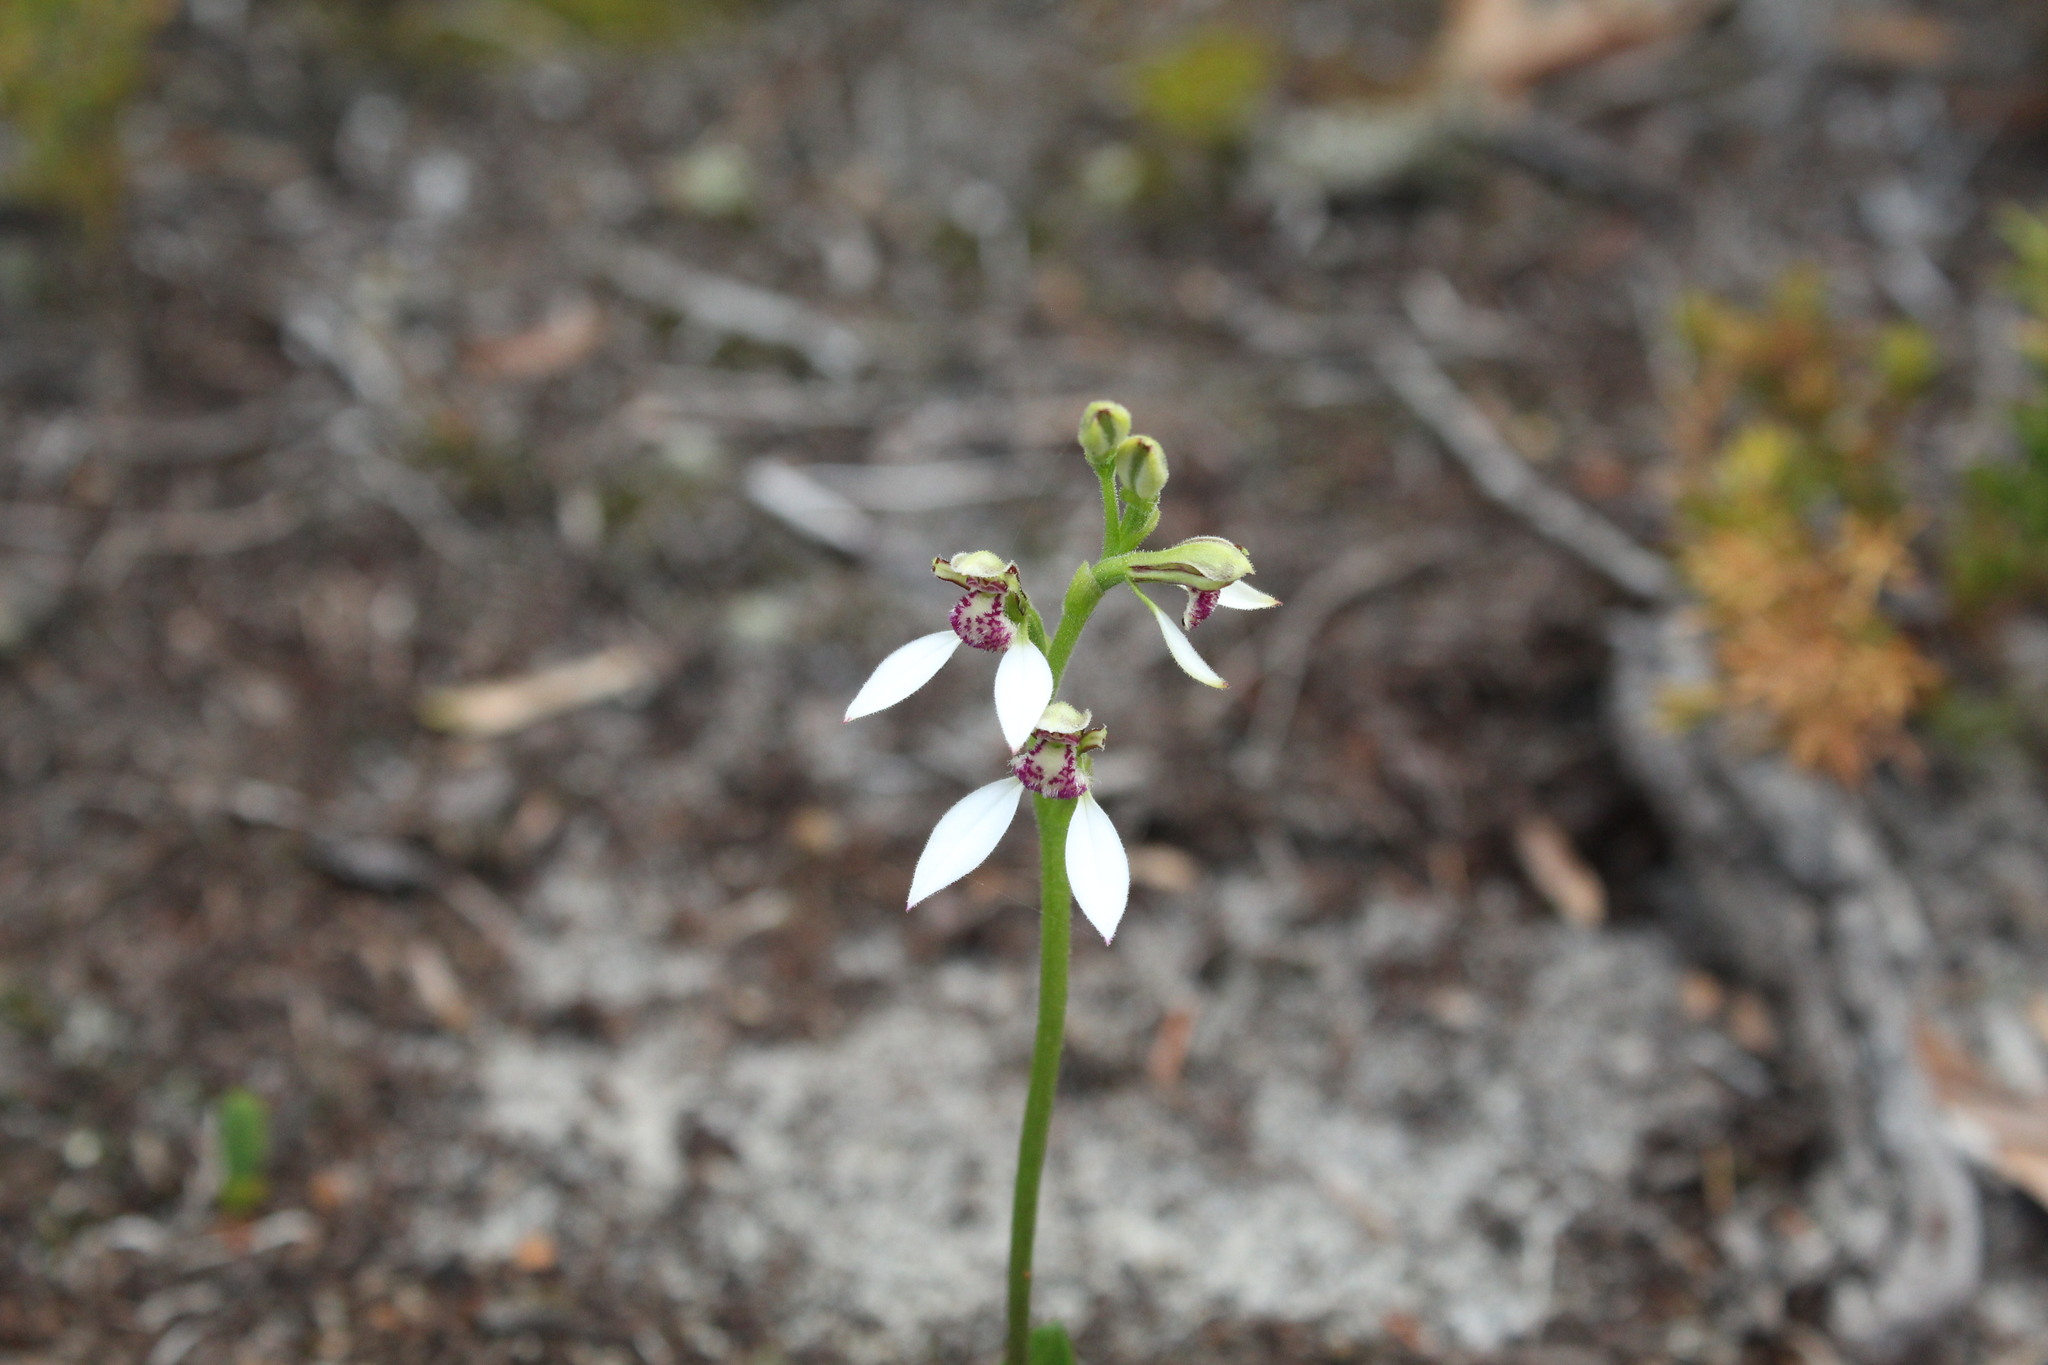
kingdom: Plantae
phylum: Tracheophyta
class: Liliopsida
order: Asparagales
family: Orchidaceae
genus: Eriochilus
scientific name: Eriochilus dilatatus
